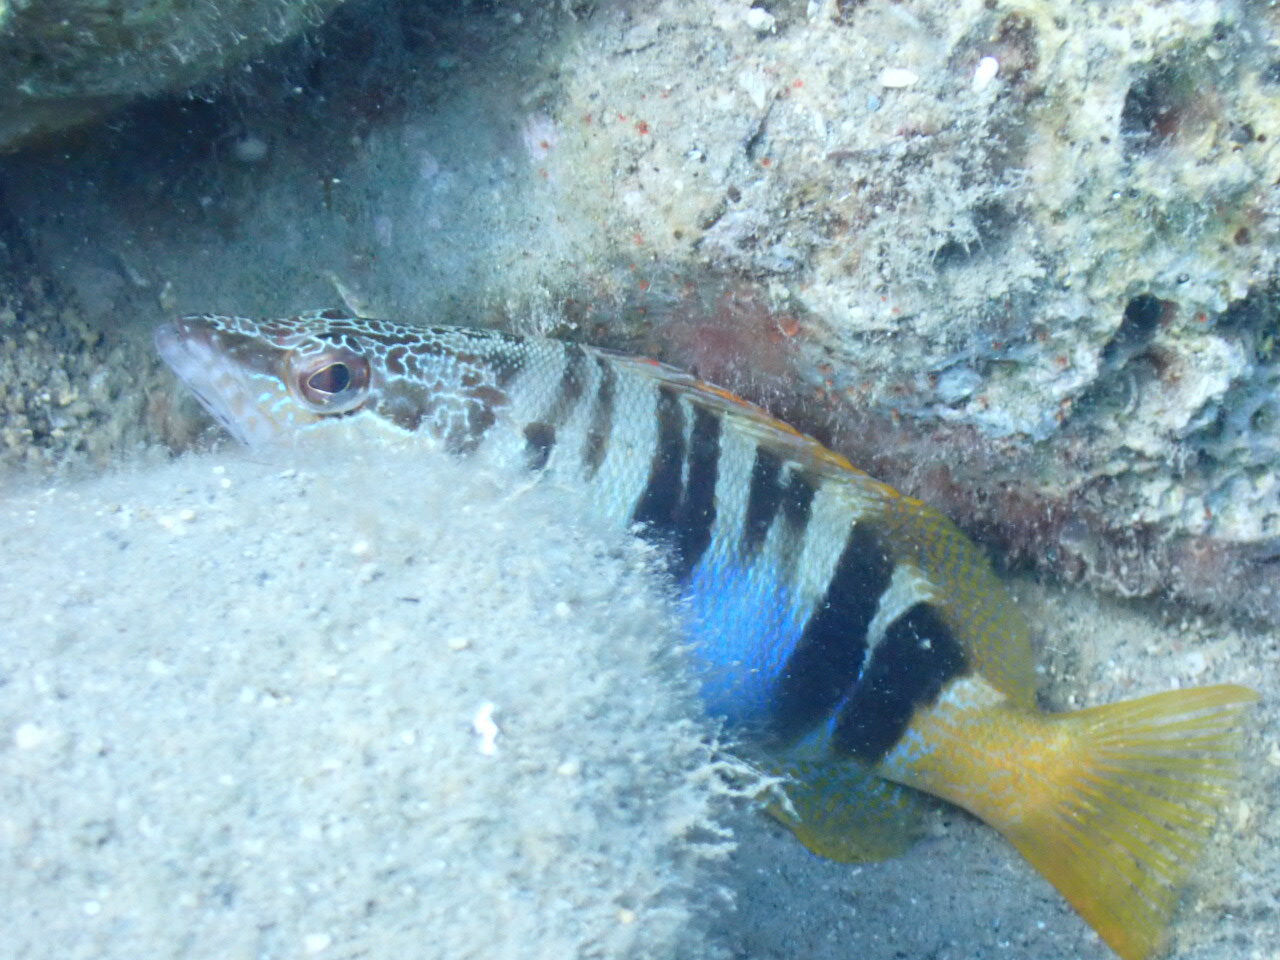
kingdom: Animalia
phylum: Chordata
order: Perciformes
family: Serranidae
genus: Serranus
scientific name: Serranus scriba
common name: Painted comber
